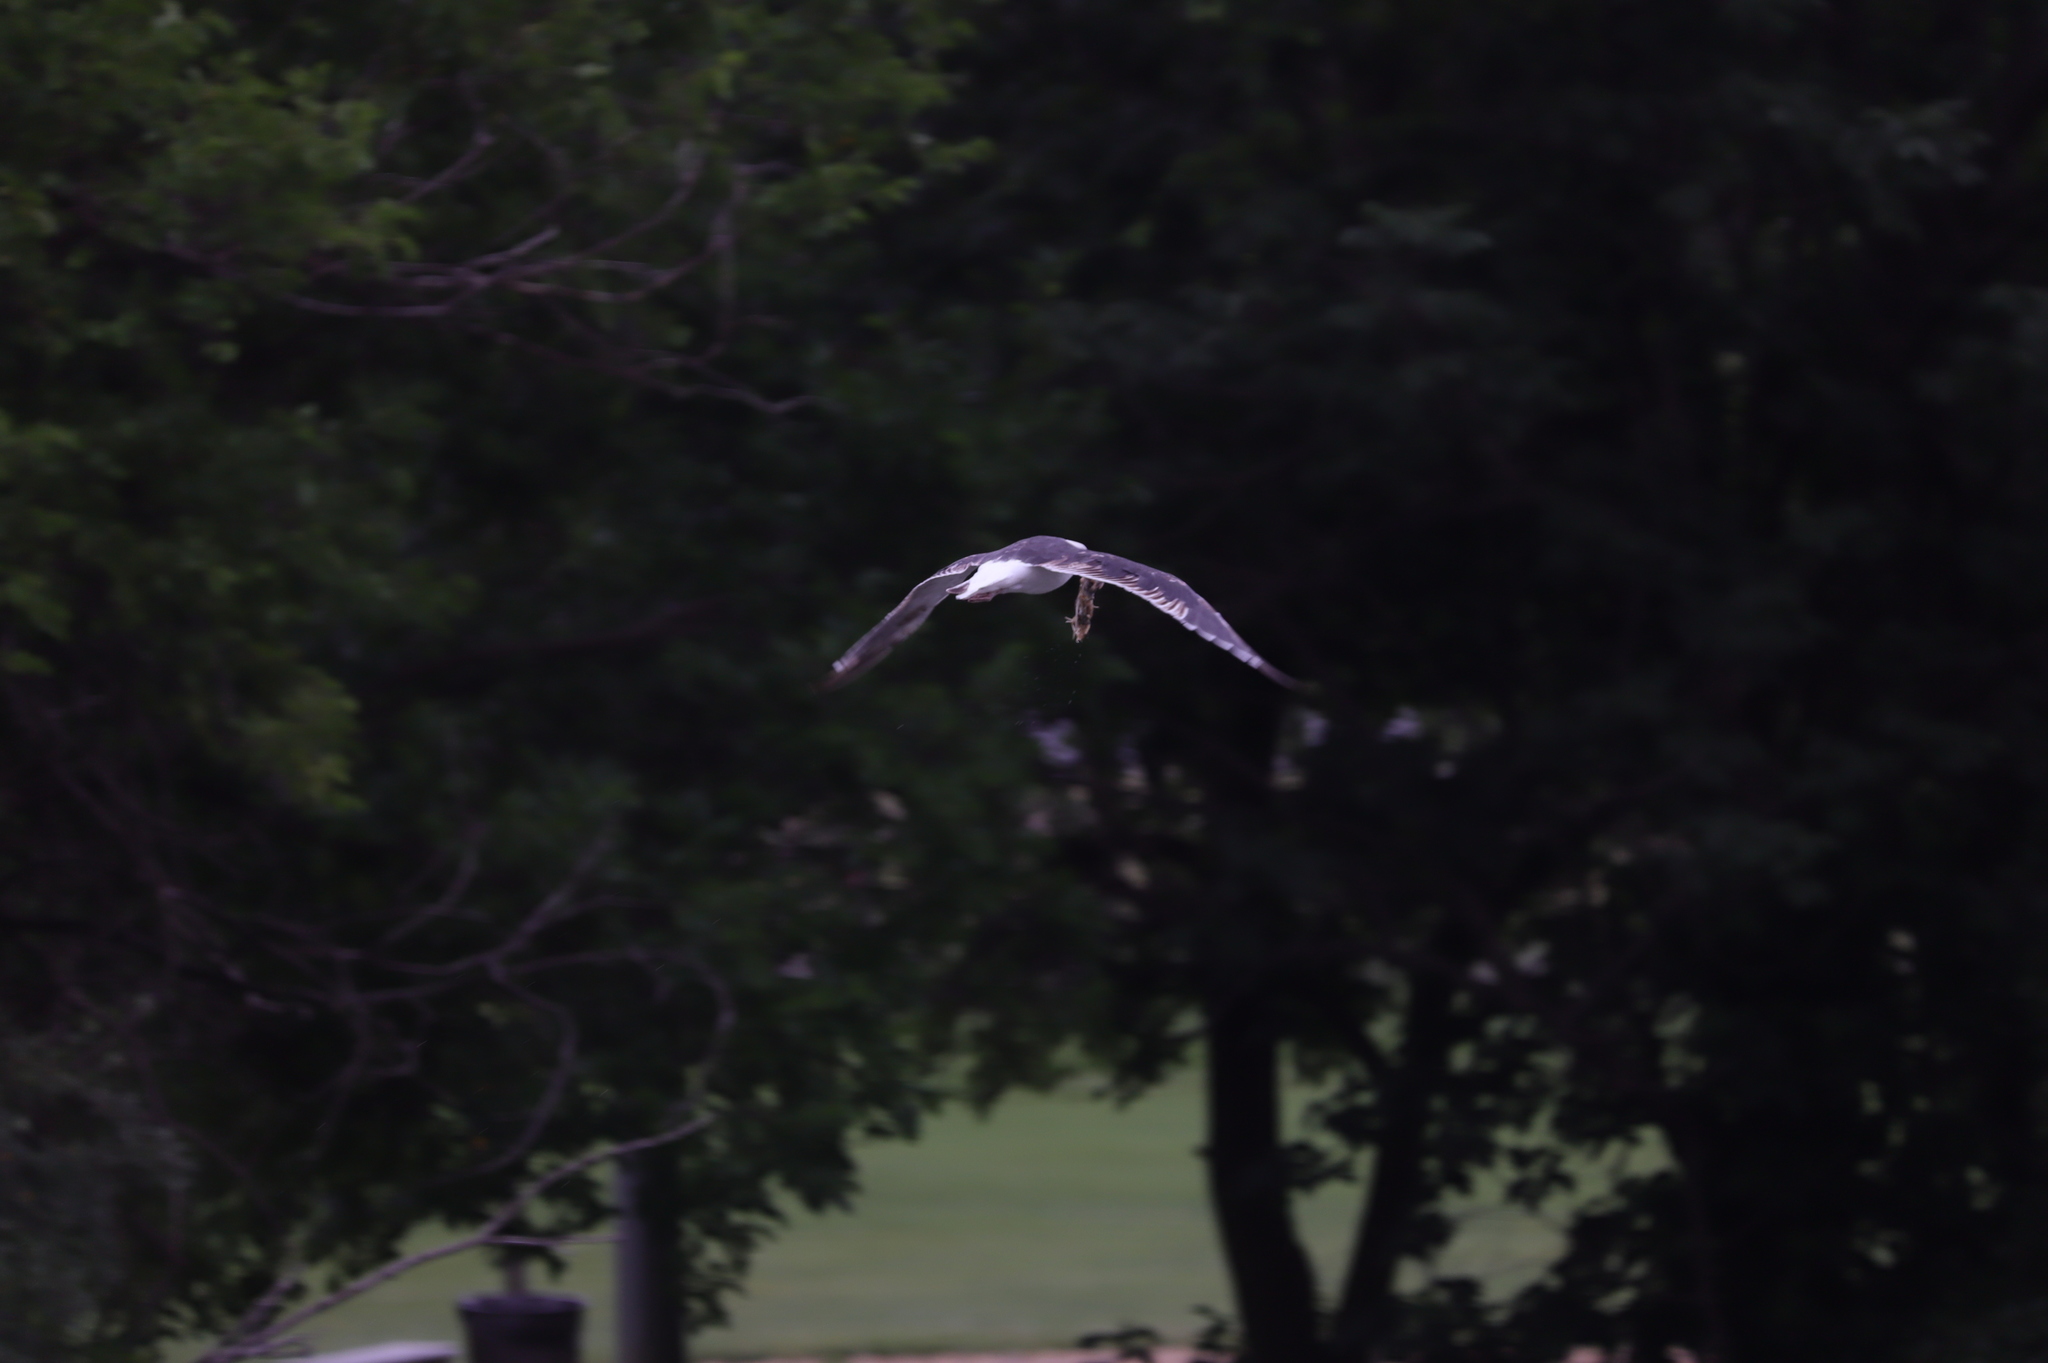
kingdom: Animalia
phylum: Chordata
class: Aves
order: Charadriiformes
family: Laridae
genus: Larus
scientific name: Larus marinus
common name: Great black-backed gull
